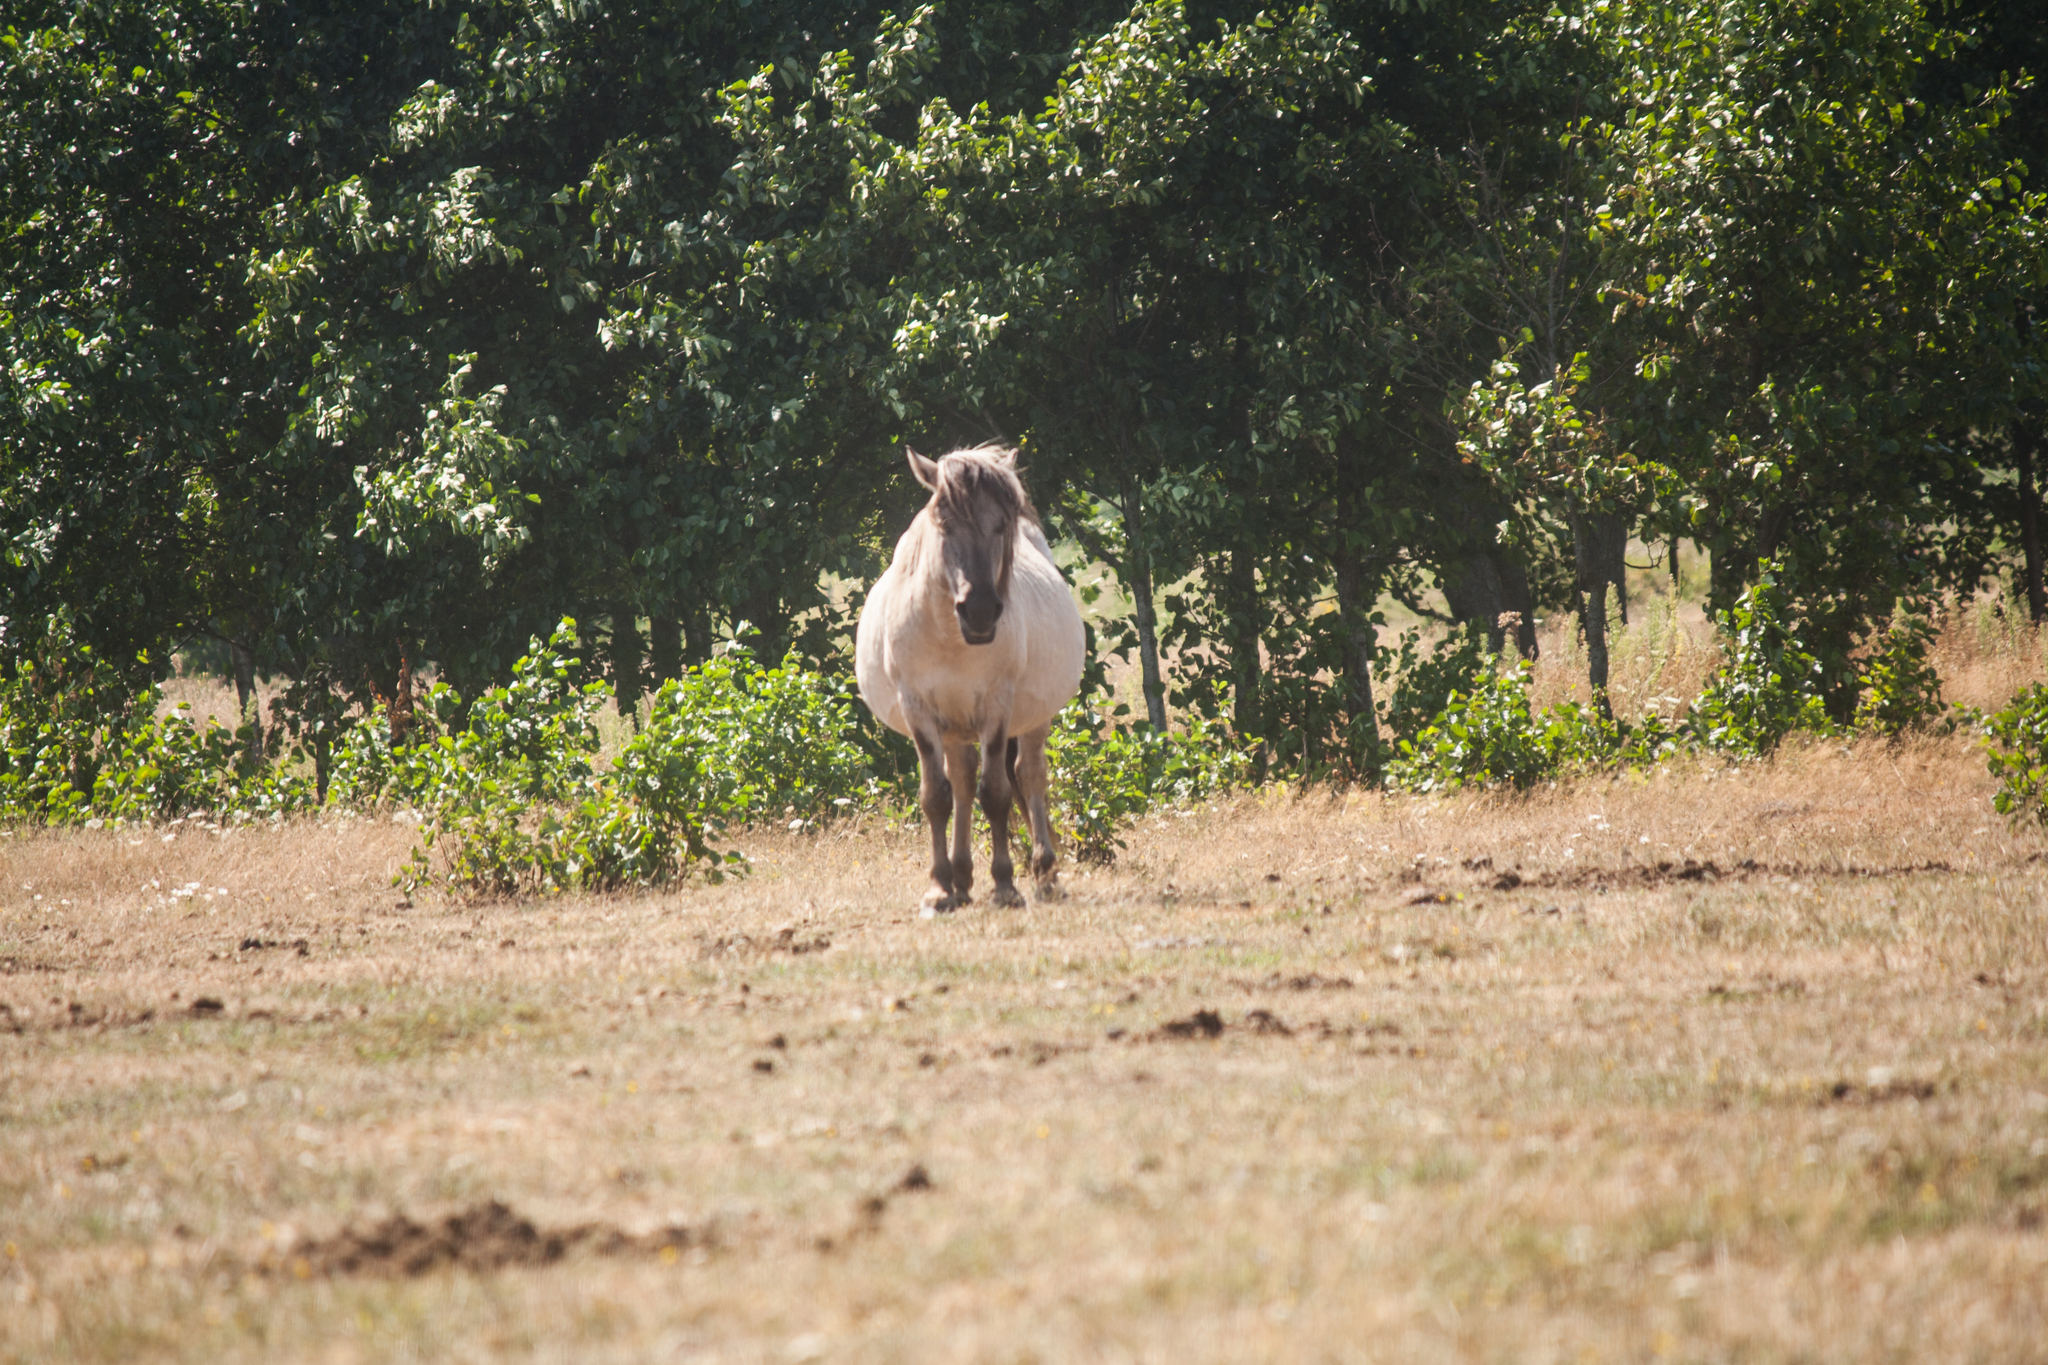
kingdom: Animalia
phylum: Chordata
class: Mammalia
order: Perissodactyla
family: Equidae
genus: Equus
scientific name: Equus caballus
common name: Horse
